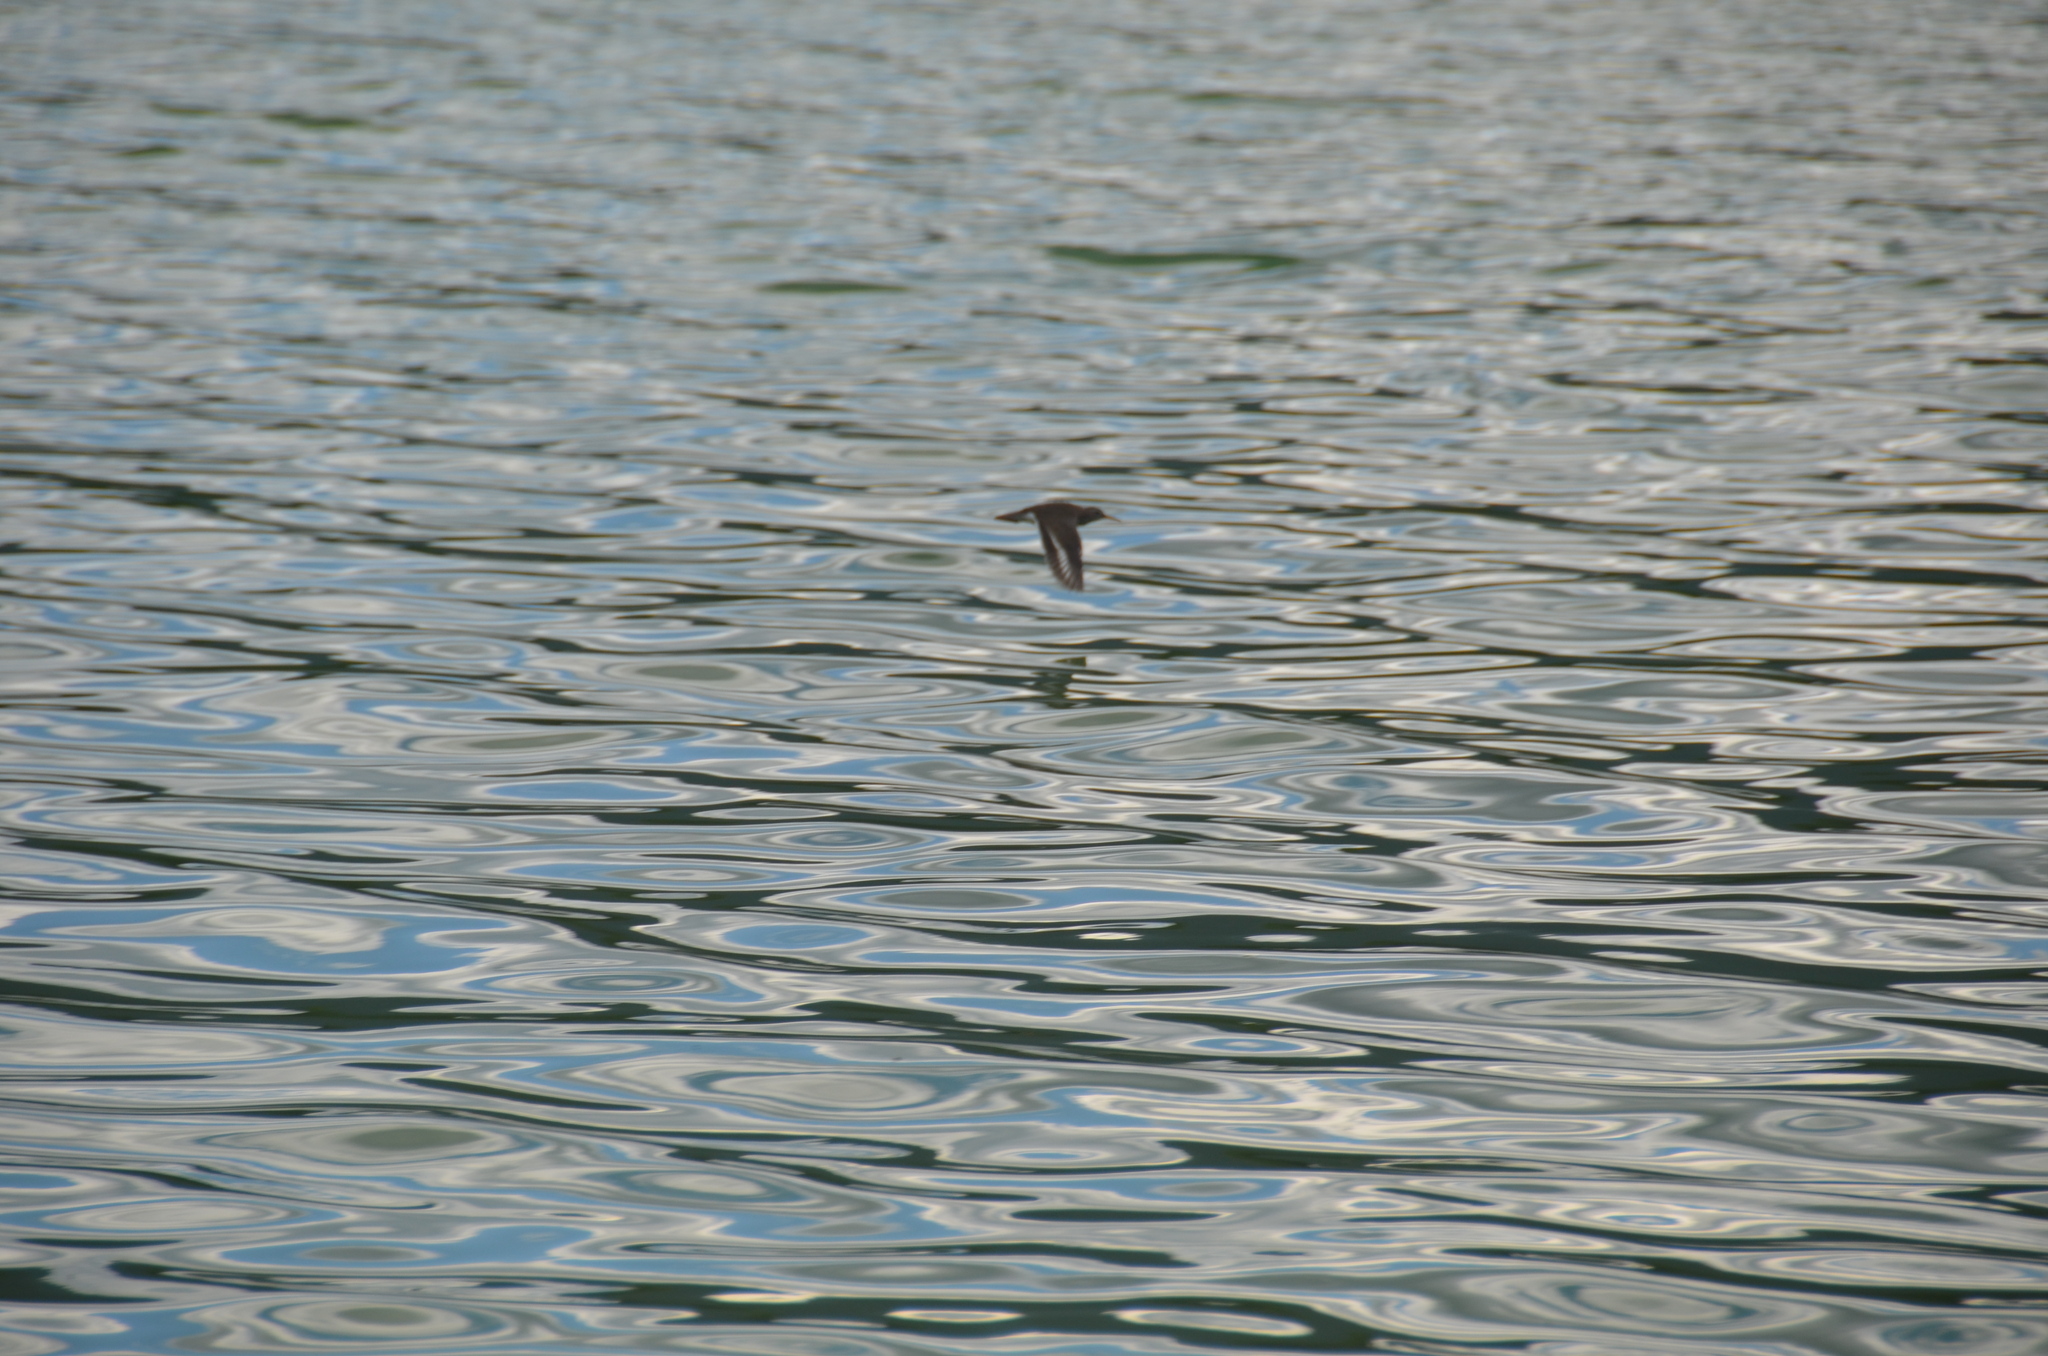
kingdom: Animalia
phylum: Chordata
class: Aves
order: Charadriiformes
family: Scolopacidae
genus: Actitis
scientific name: Actitis macularius
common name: Spotted sandpiper
